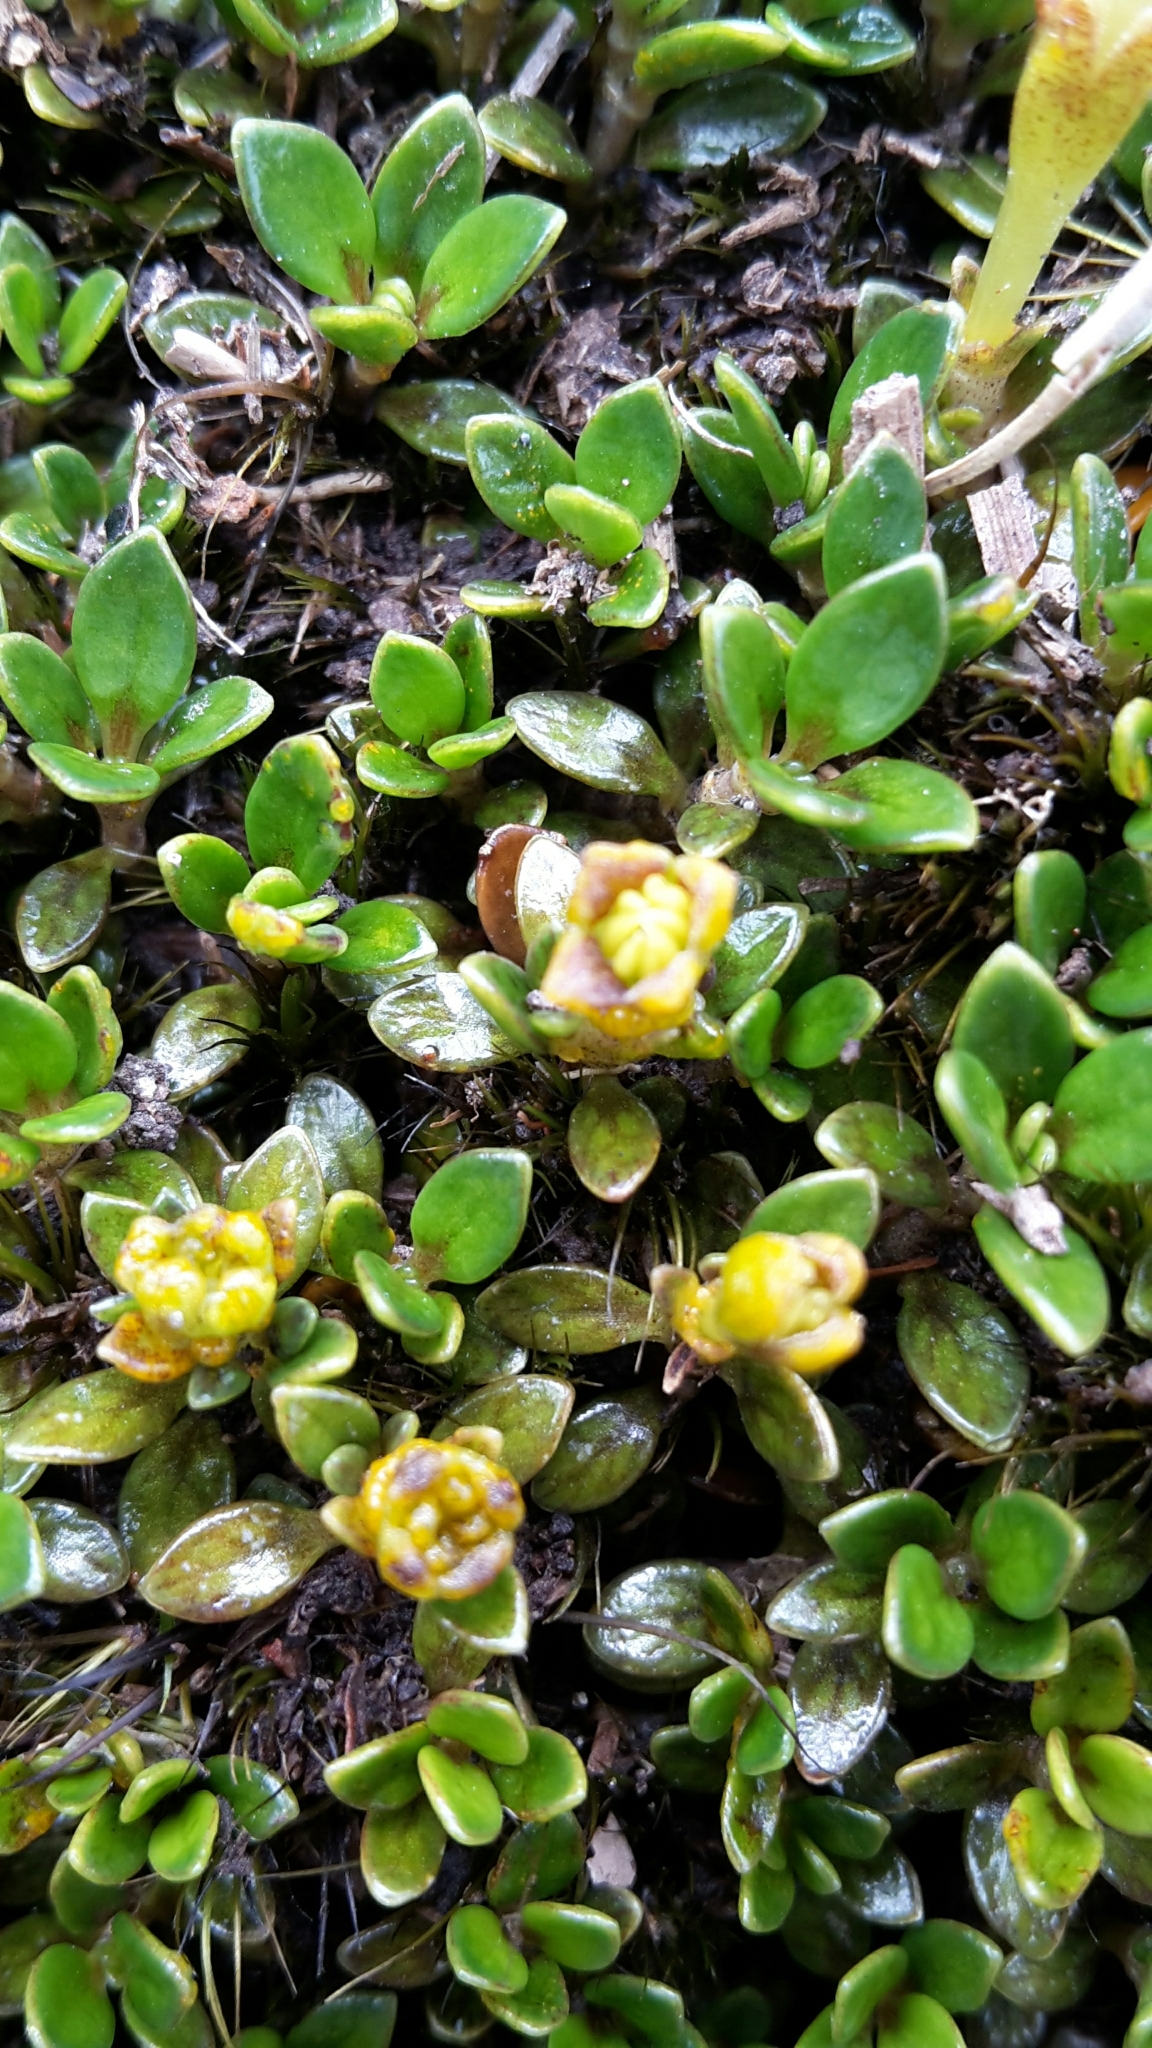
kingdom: Plantae
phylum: Tracheophyta
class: Magnoliopsida
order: Gentianales
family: Rubiaceae
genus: Coprosma
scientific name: Coprosma perpusilla
